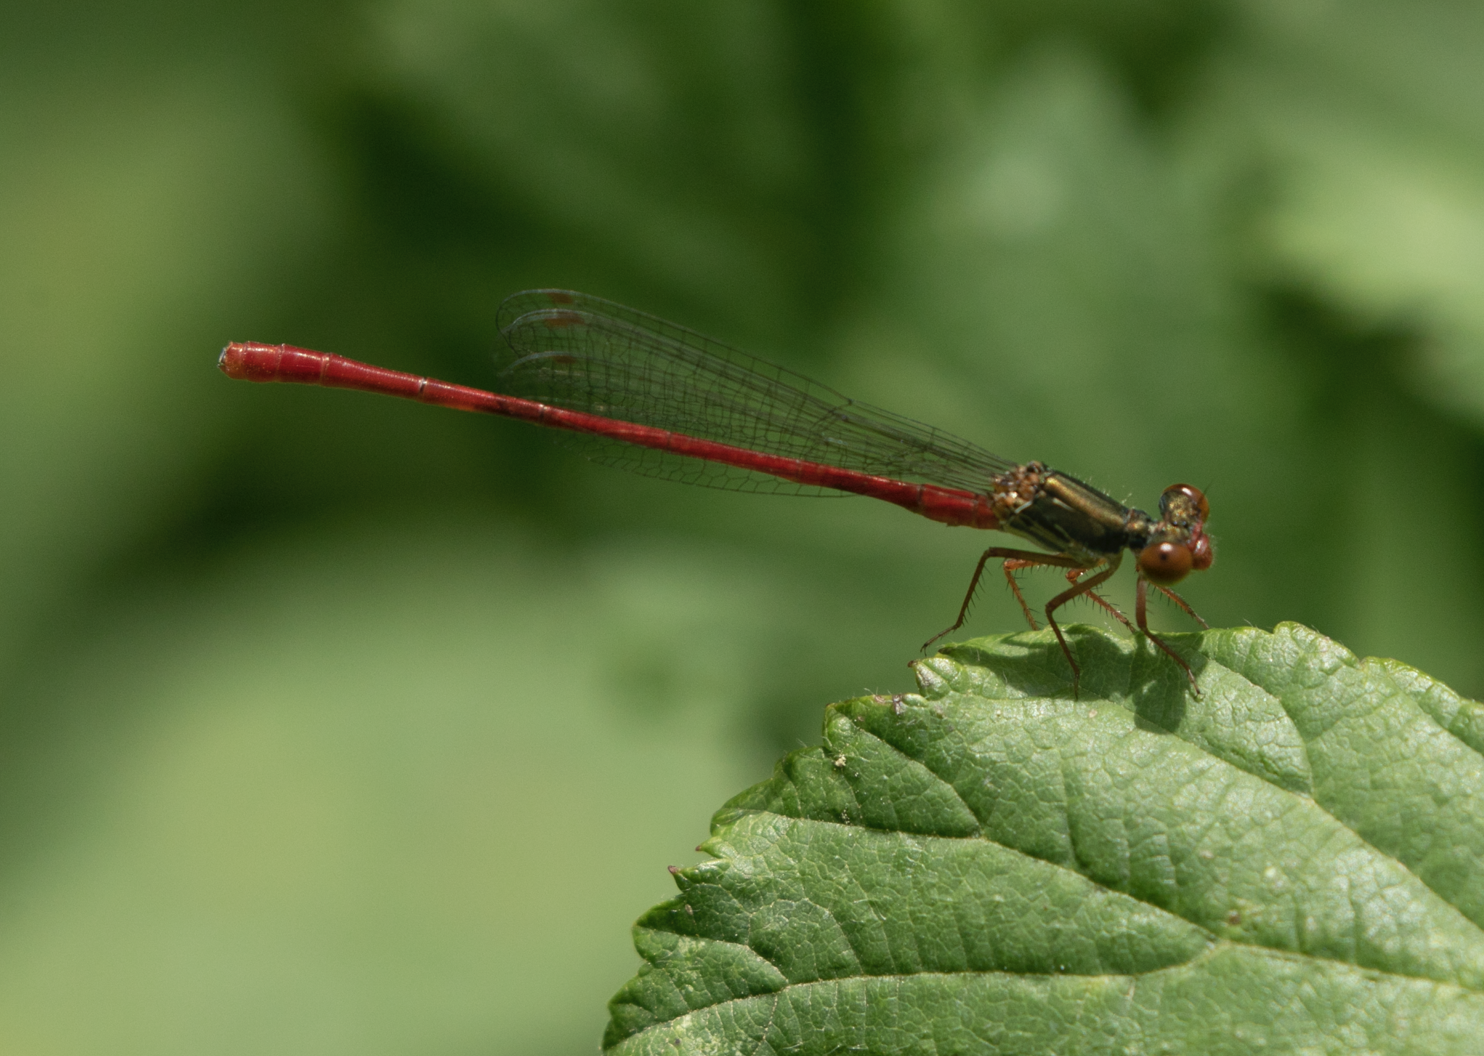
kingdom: Animalia
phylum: Arthropoda
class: Insecta
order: Odonata
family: Coenagrionidae
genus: Ceriagrion
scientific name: Ceriagrion tenellum
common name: Small red damselfly
